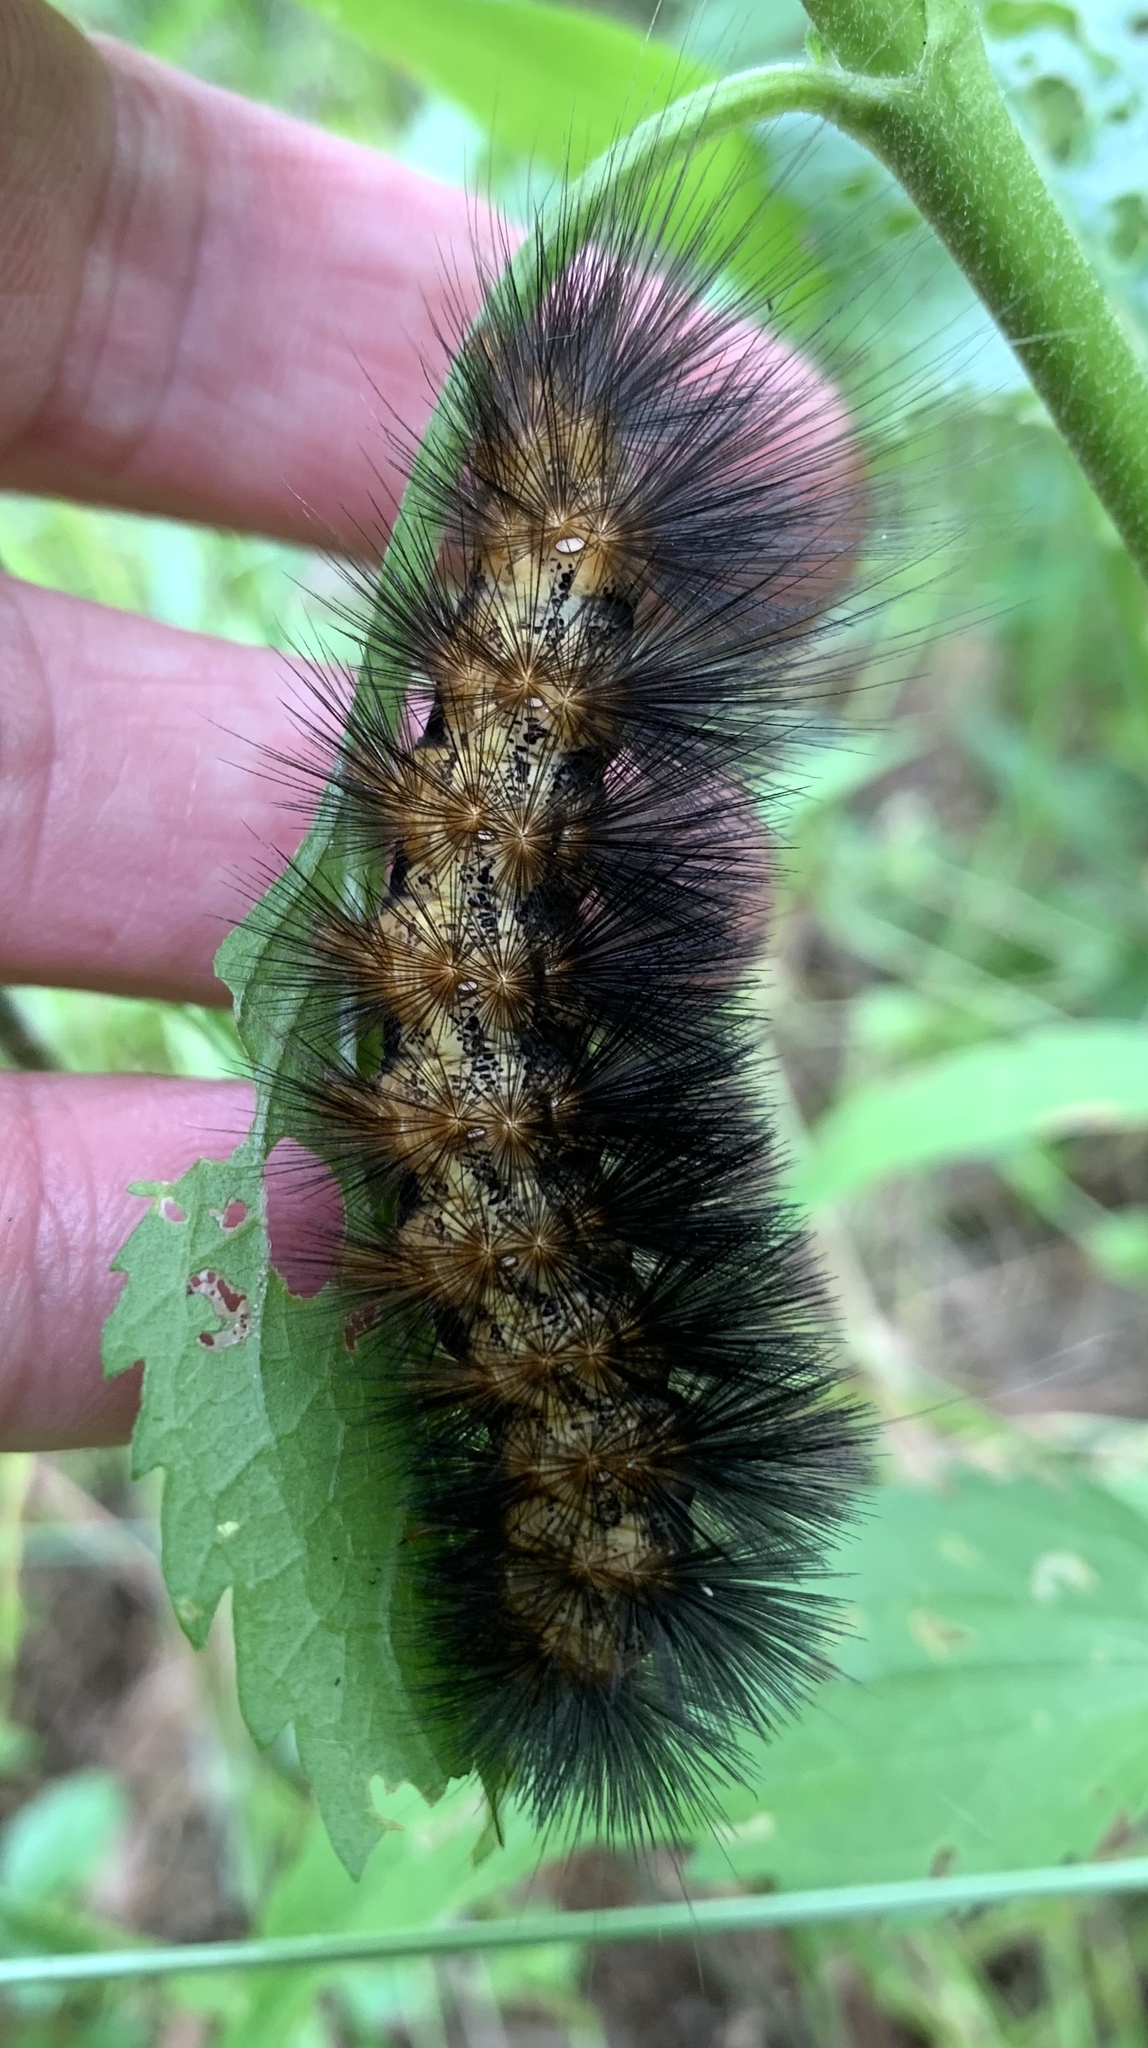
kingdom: Animalia
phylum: Arthropoda
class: Insecta
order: Lepidoptera
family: Erebidae
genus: Estigmene
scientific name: Estigmene acrea
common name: Salt marsh moth
